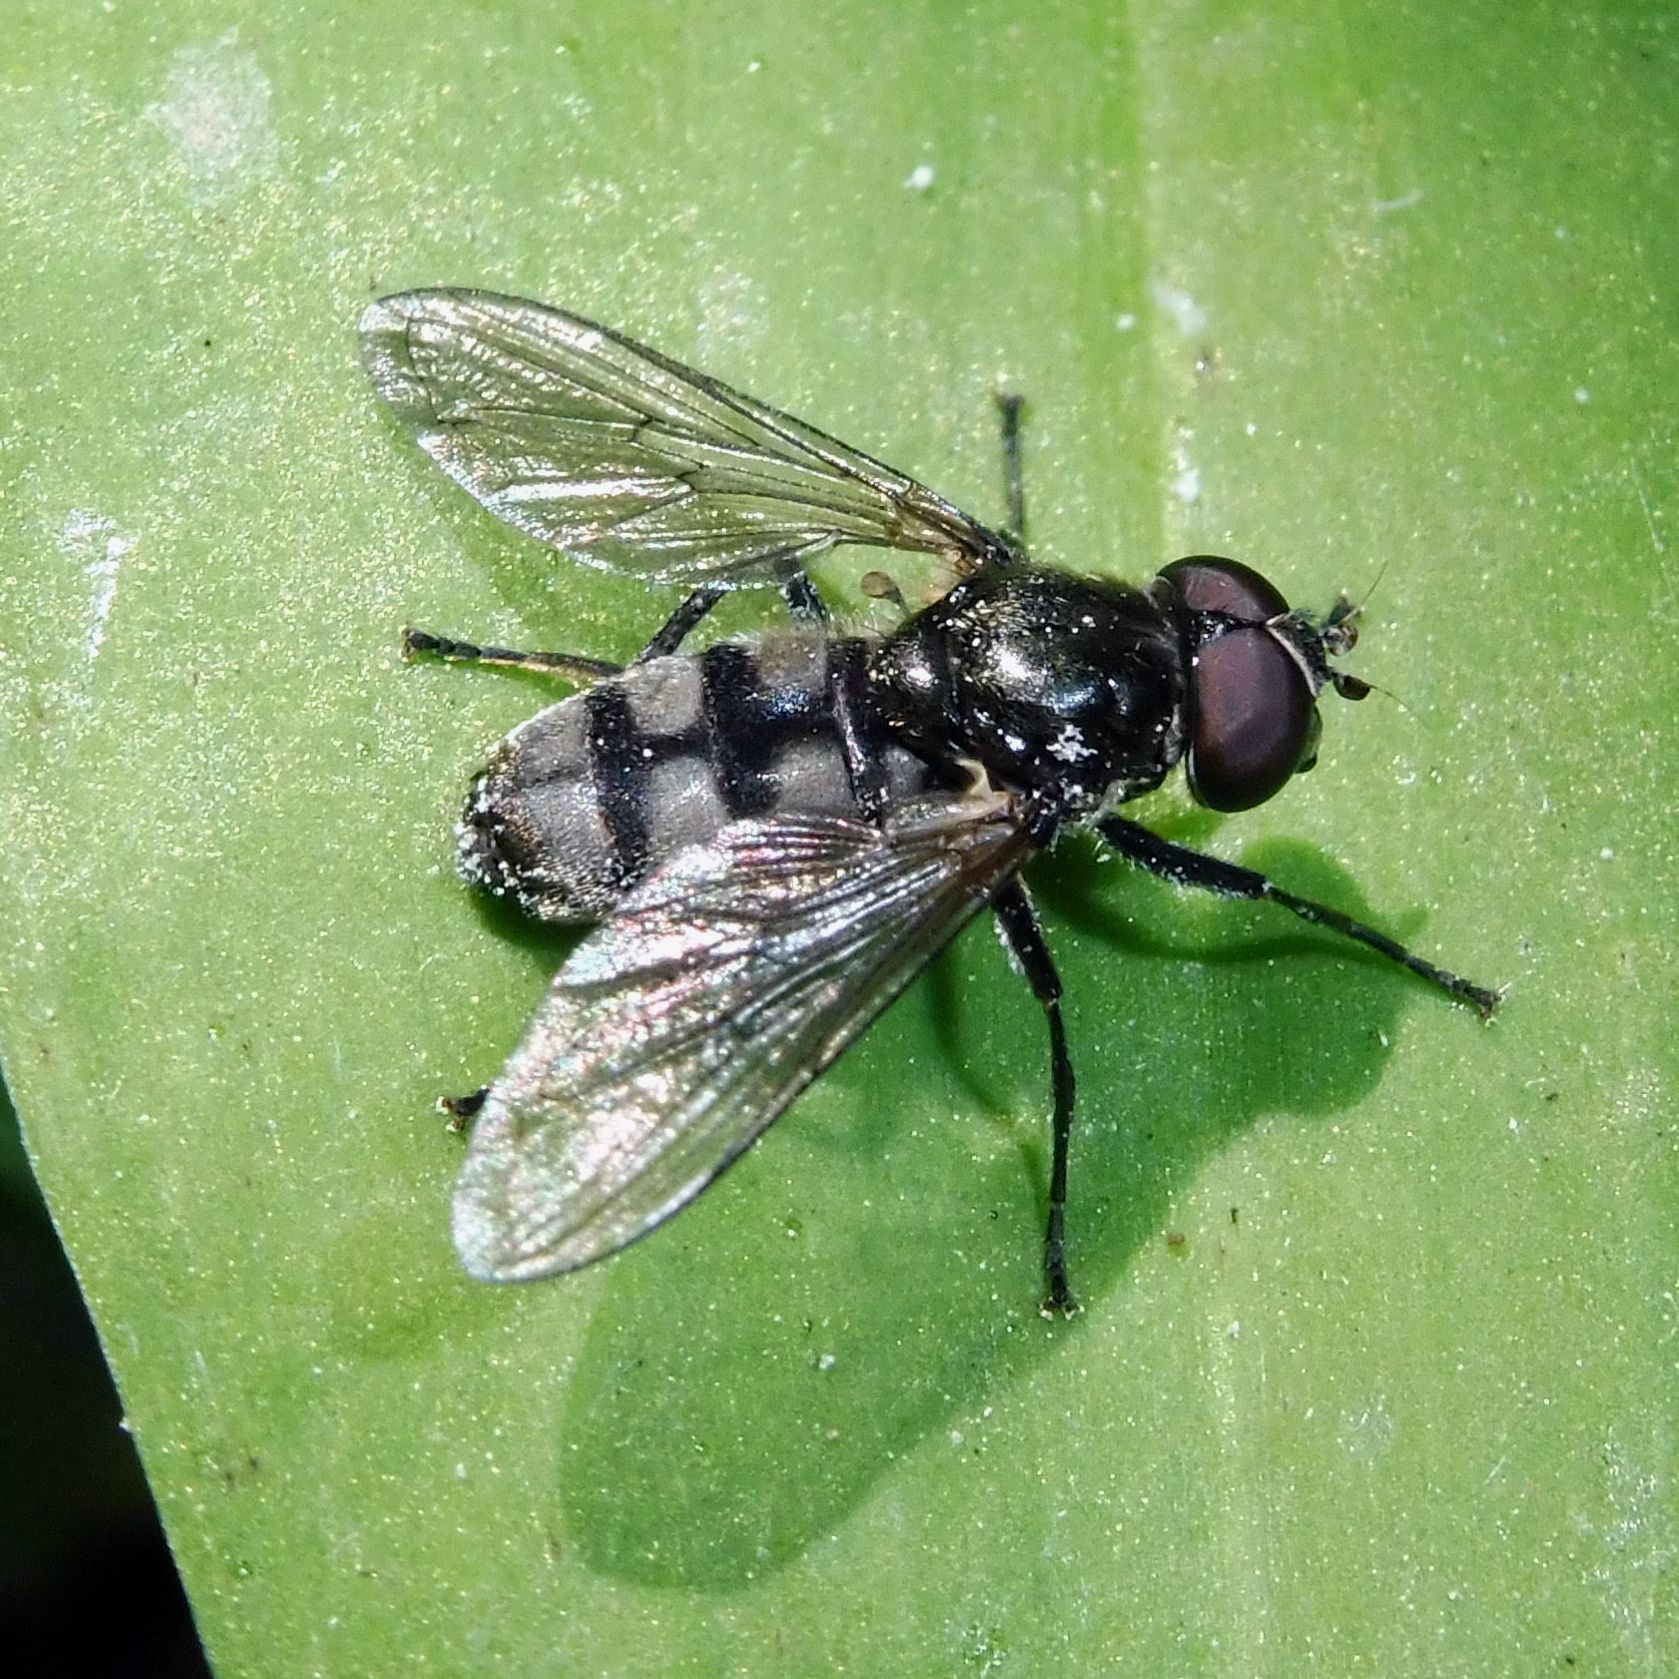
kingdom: Animalia
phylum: Arthropoda
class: Insecta
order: Diptera
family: Syrphidae
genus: Portevinia
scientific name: Portevinia maculata
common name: Ramson's hoverfly
